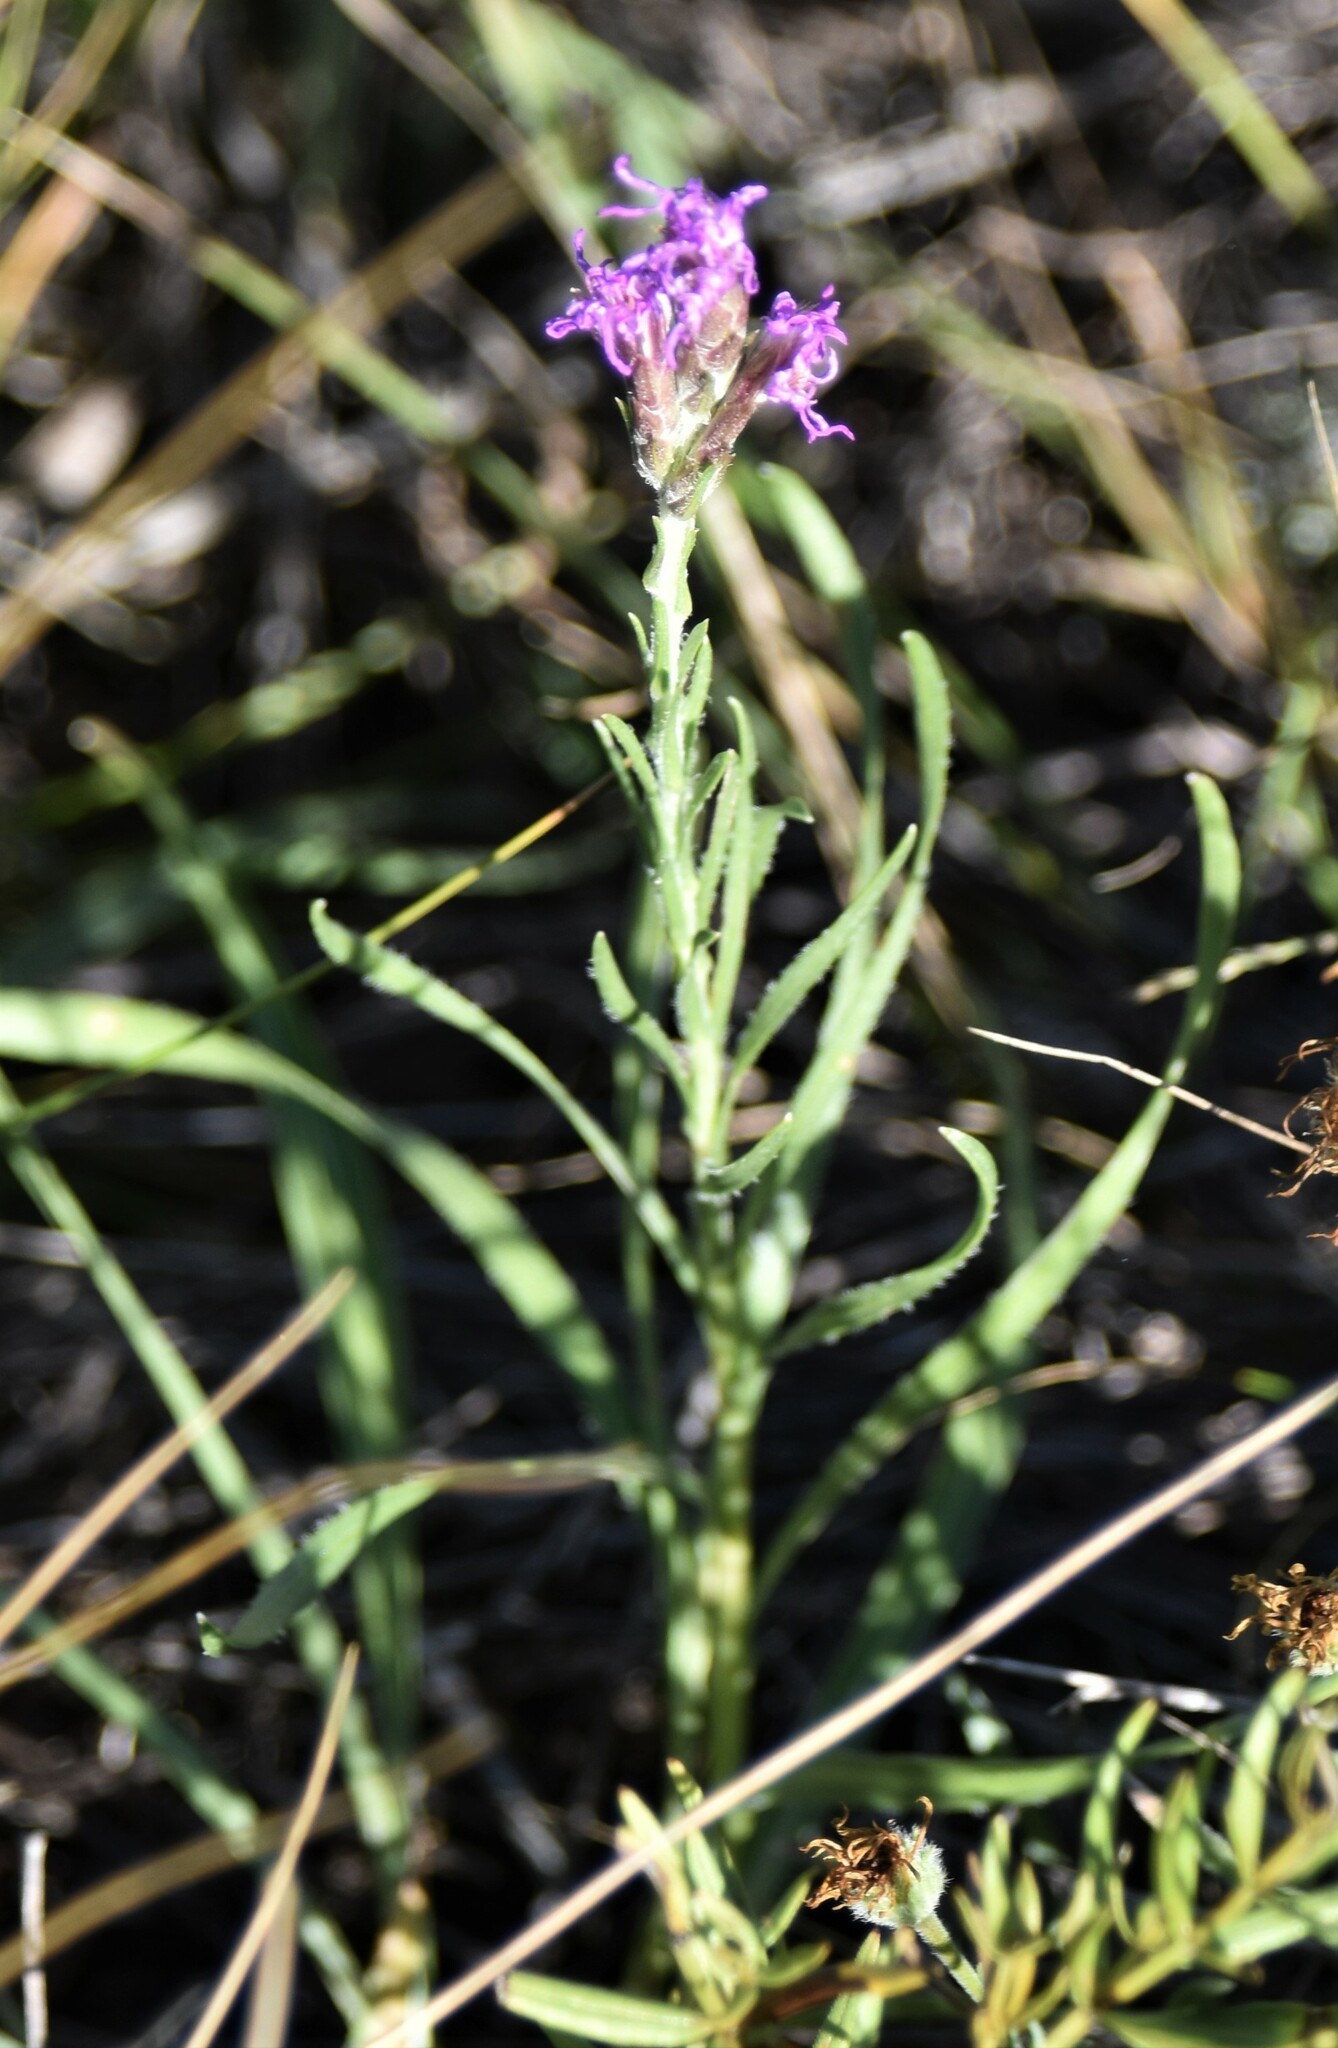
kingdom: Plantae
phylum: Tracheophyta
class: Magnoliopsida
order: Asterales
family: Asteraceae
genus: Liatris
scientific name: Liatris punctata
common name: Dotted gayfeather
